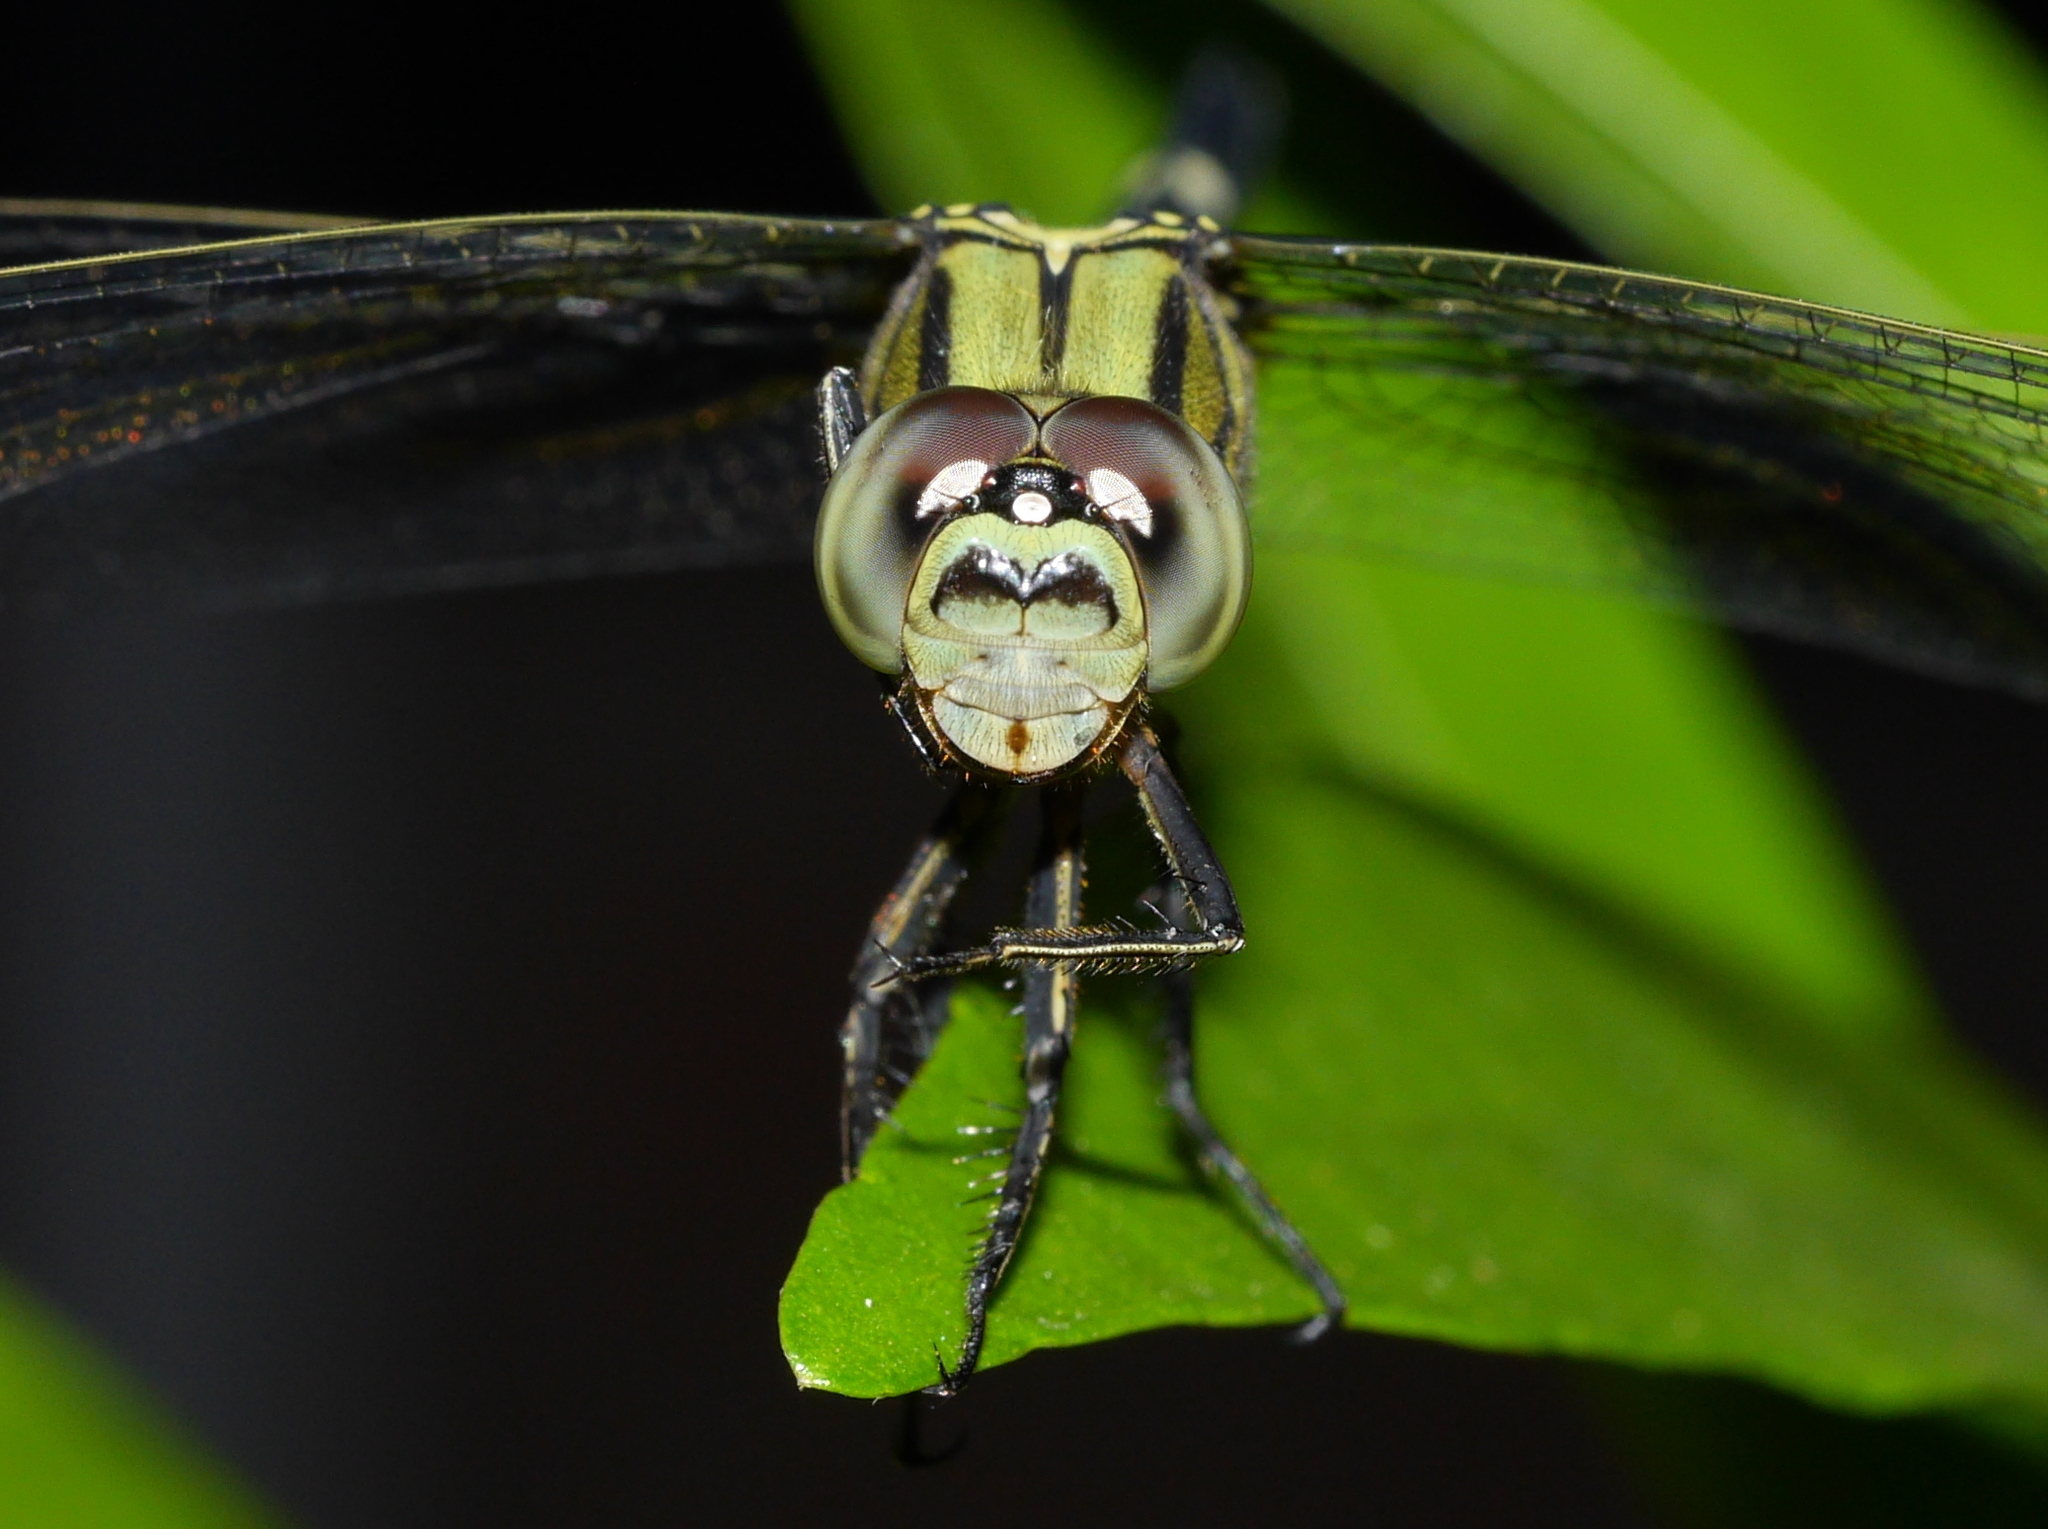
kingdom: Animalia
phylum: Arthropoda
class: Insecta
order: Odonata
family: Libellulidae
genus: Orthetrum
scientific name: Orthetrum sabina
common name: Slender skimmer
